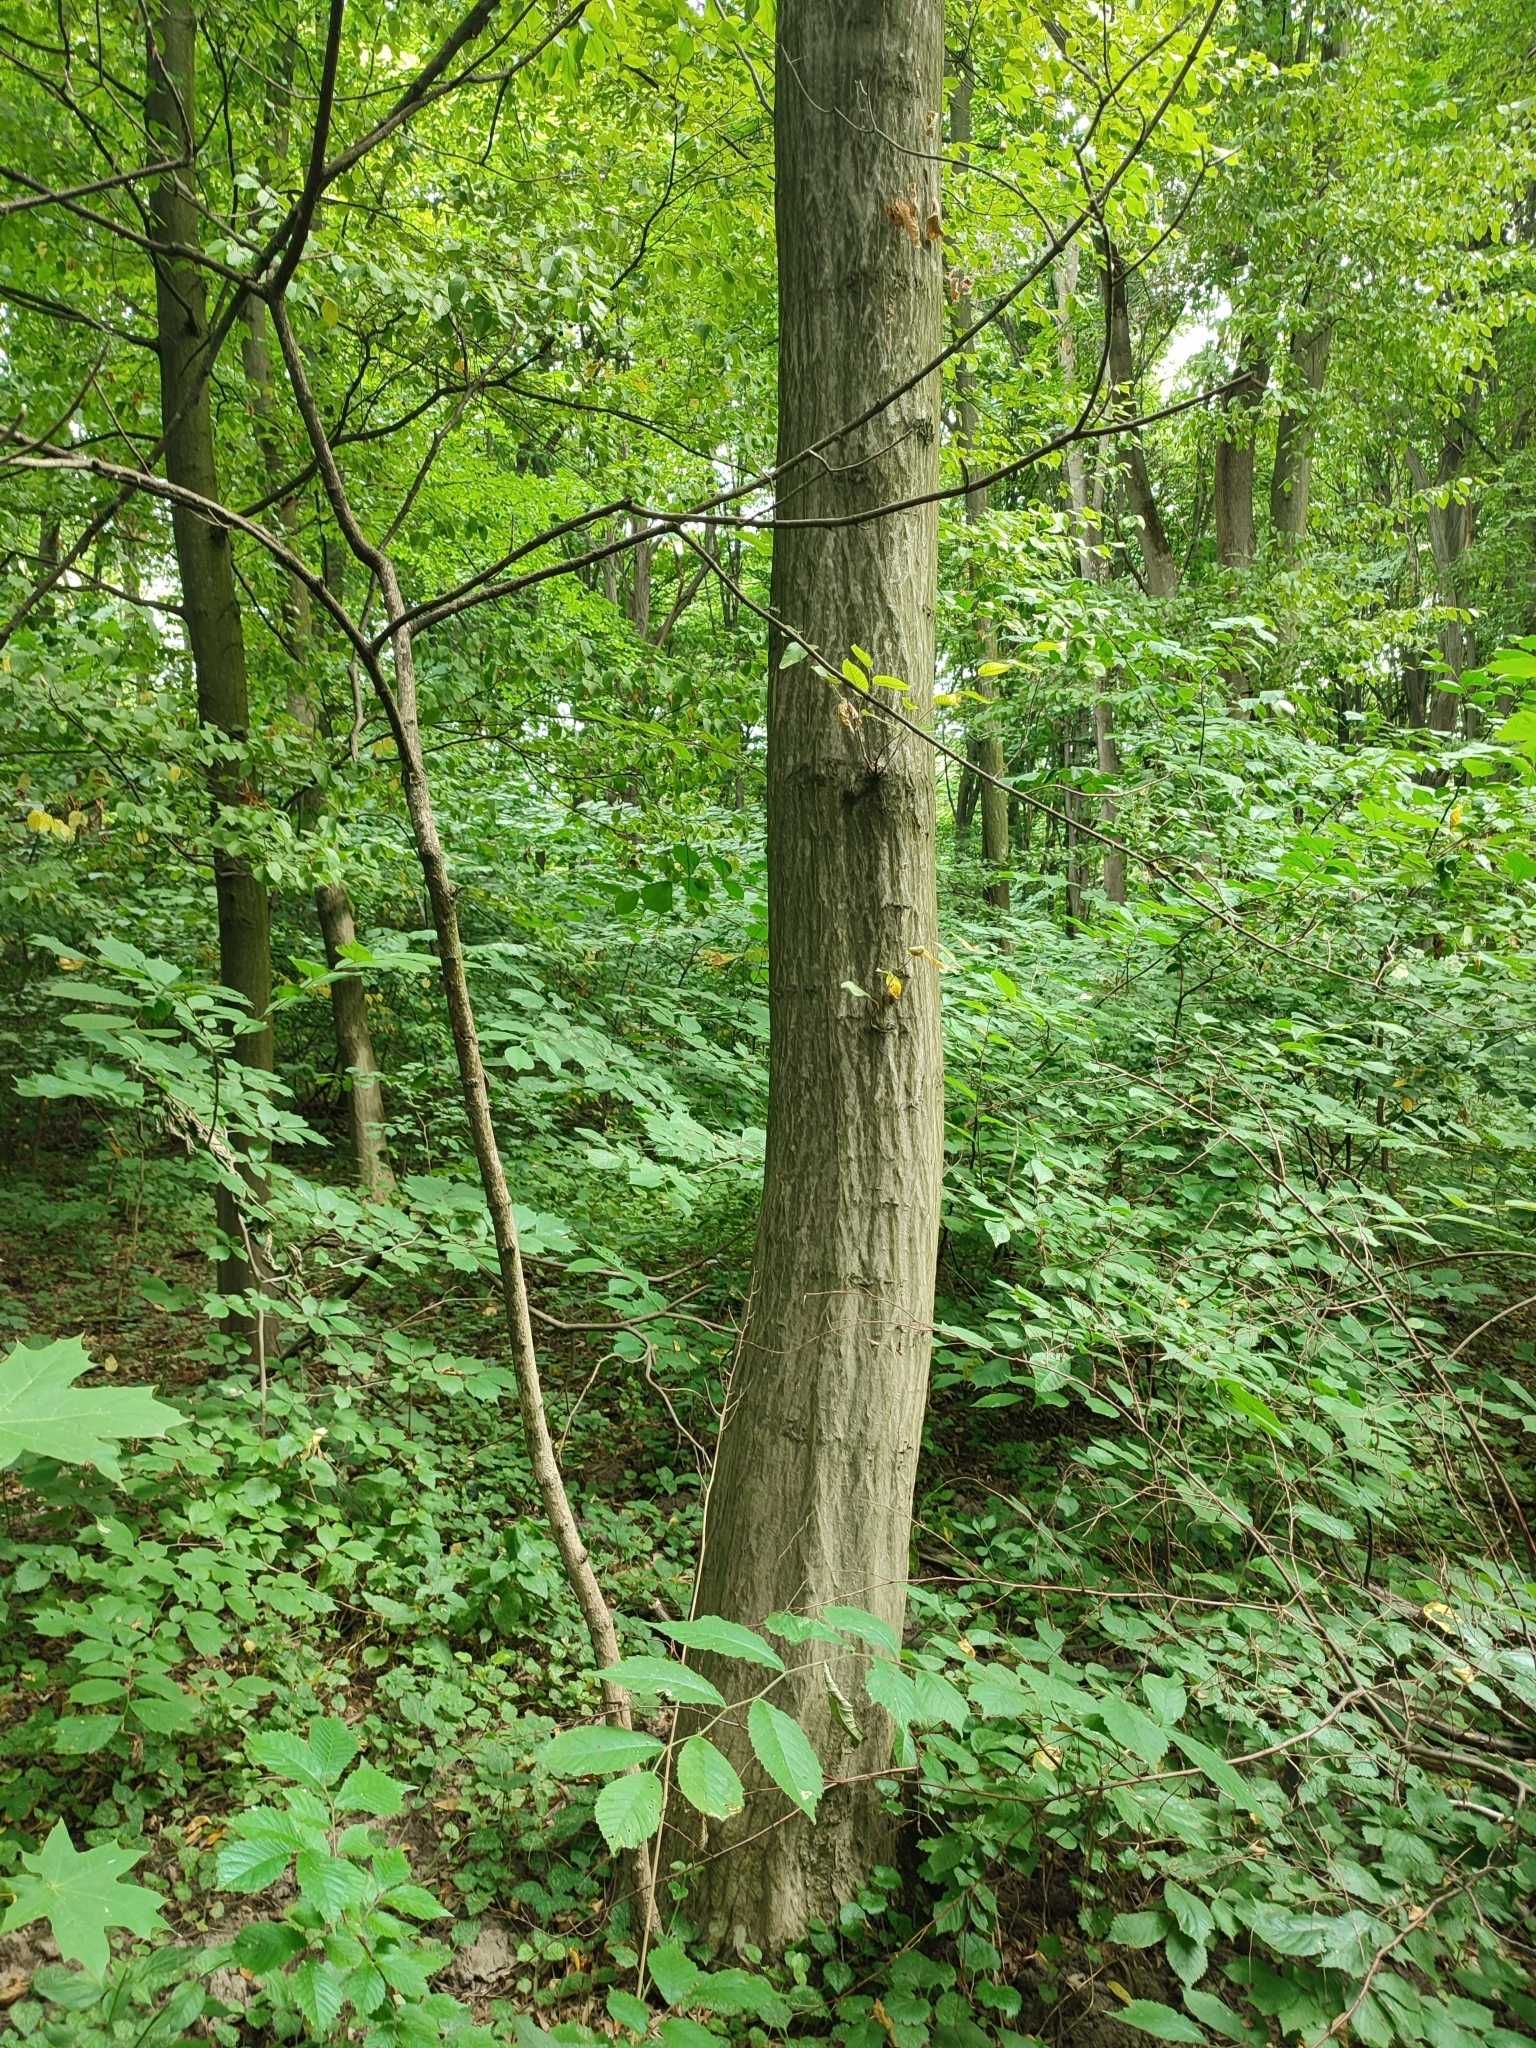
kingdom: Plantae
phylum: Tracheophyta
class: Magnoliopsida
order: Fagales
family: Betulaceae
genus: Carpinus
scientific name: Carpinus betulus
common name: Hornbeam
